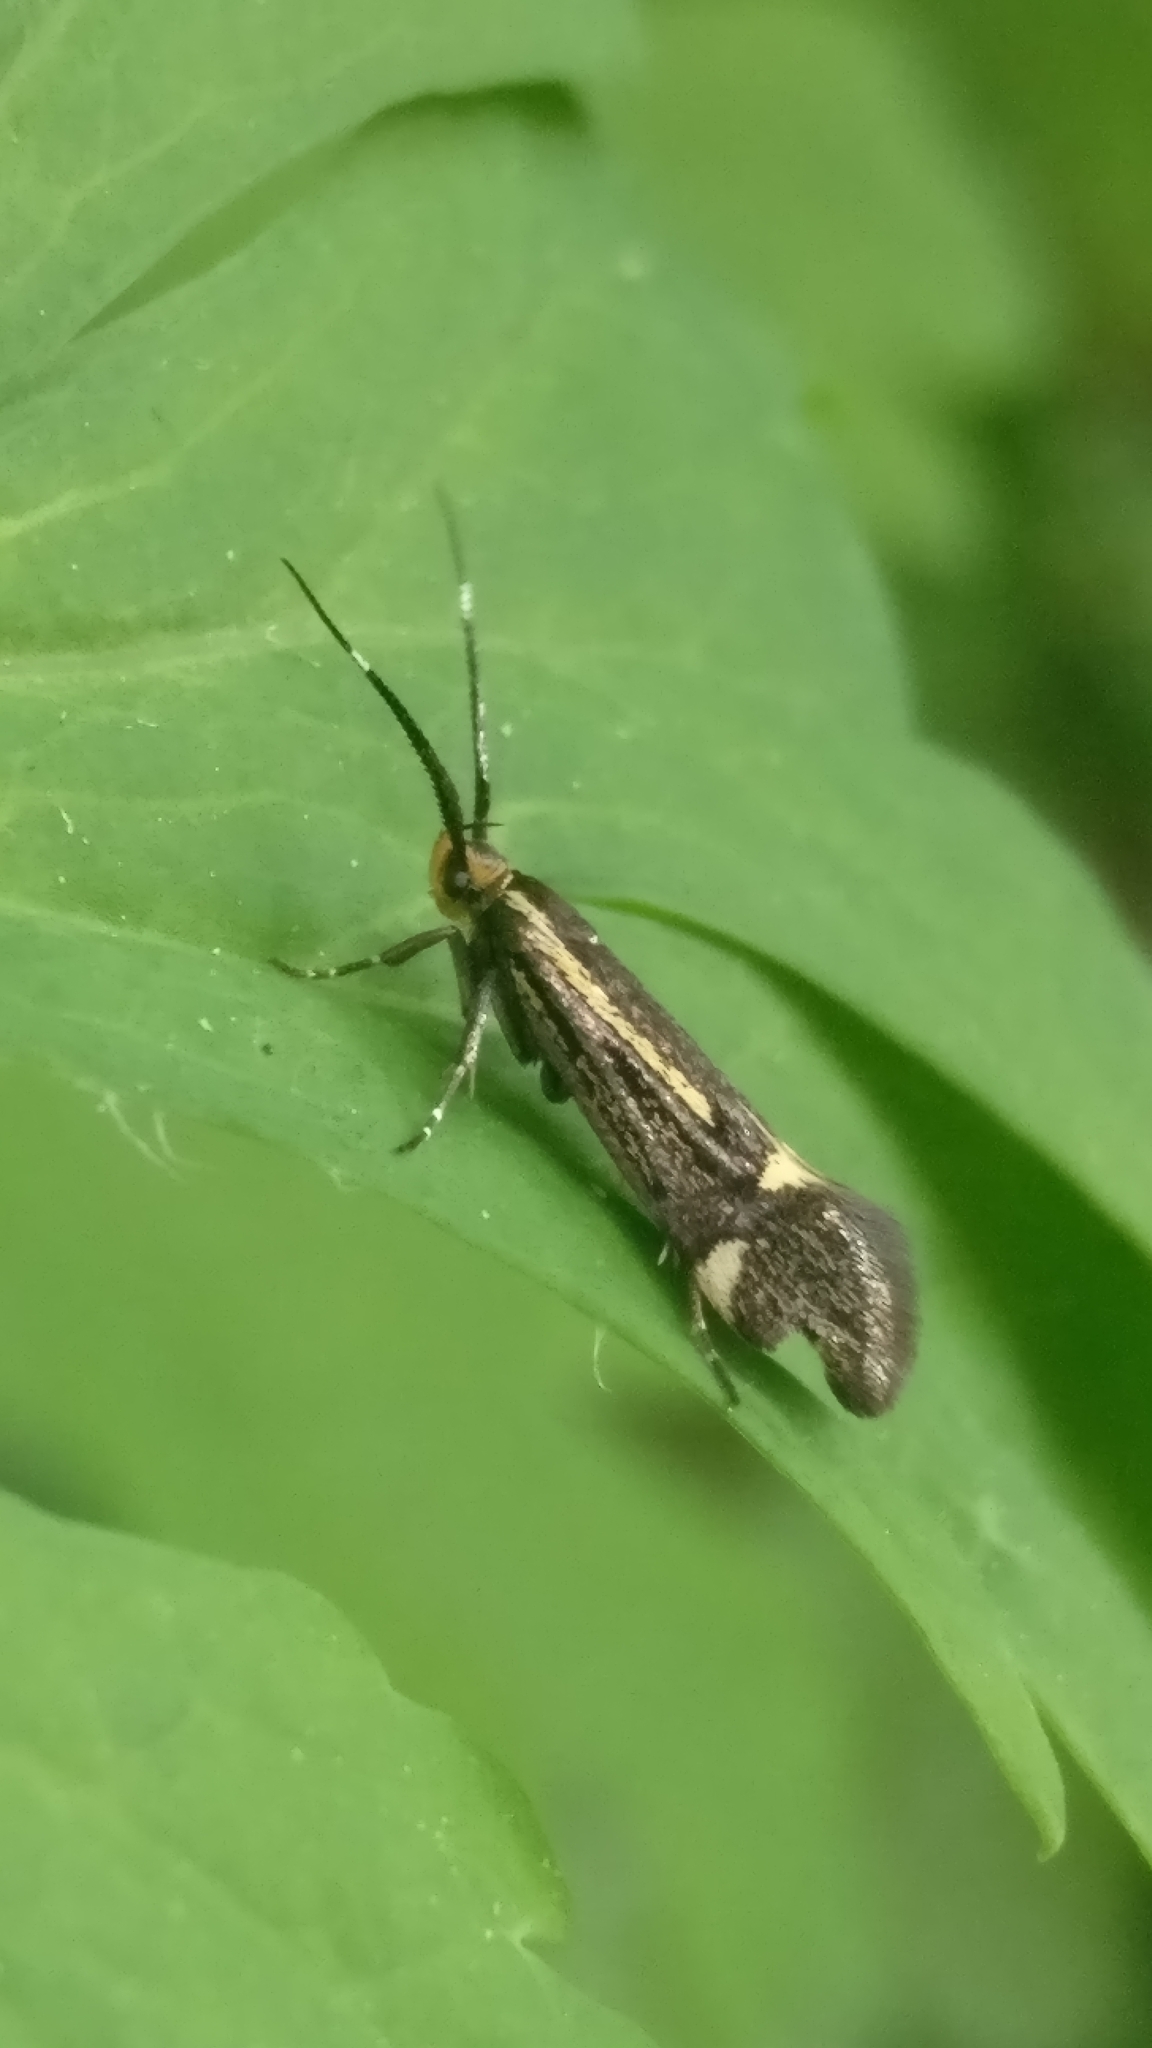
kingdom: Animalia
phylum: Arthropoda
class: Insecta
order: Lepidoptera
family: Oecophoridae
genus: Dafa
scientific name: Dafa Esperia sulphurella
